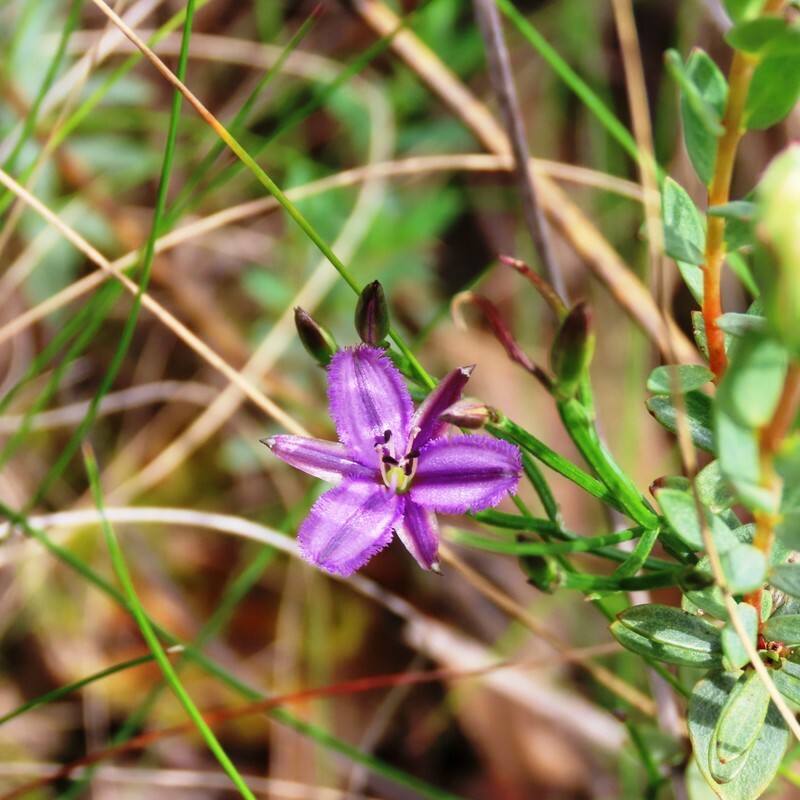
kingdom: Plantae
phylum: Tracheophyta
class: Liliopsida
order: Asparagales
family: Asparagaceae
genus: Thysanotus
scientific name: Thysanotus patersonii
